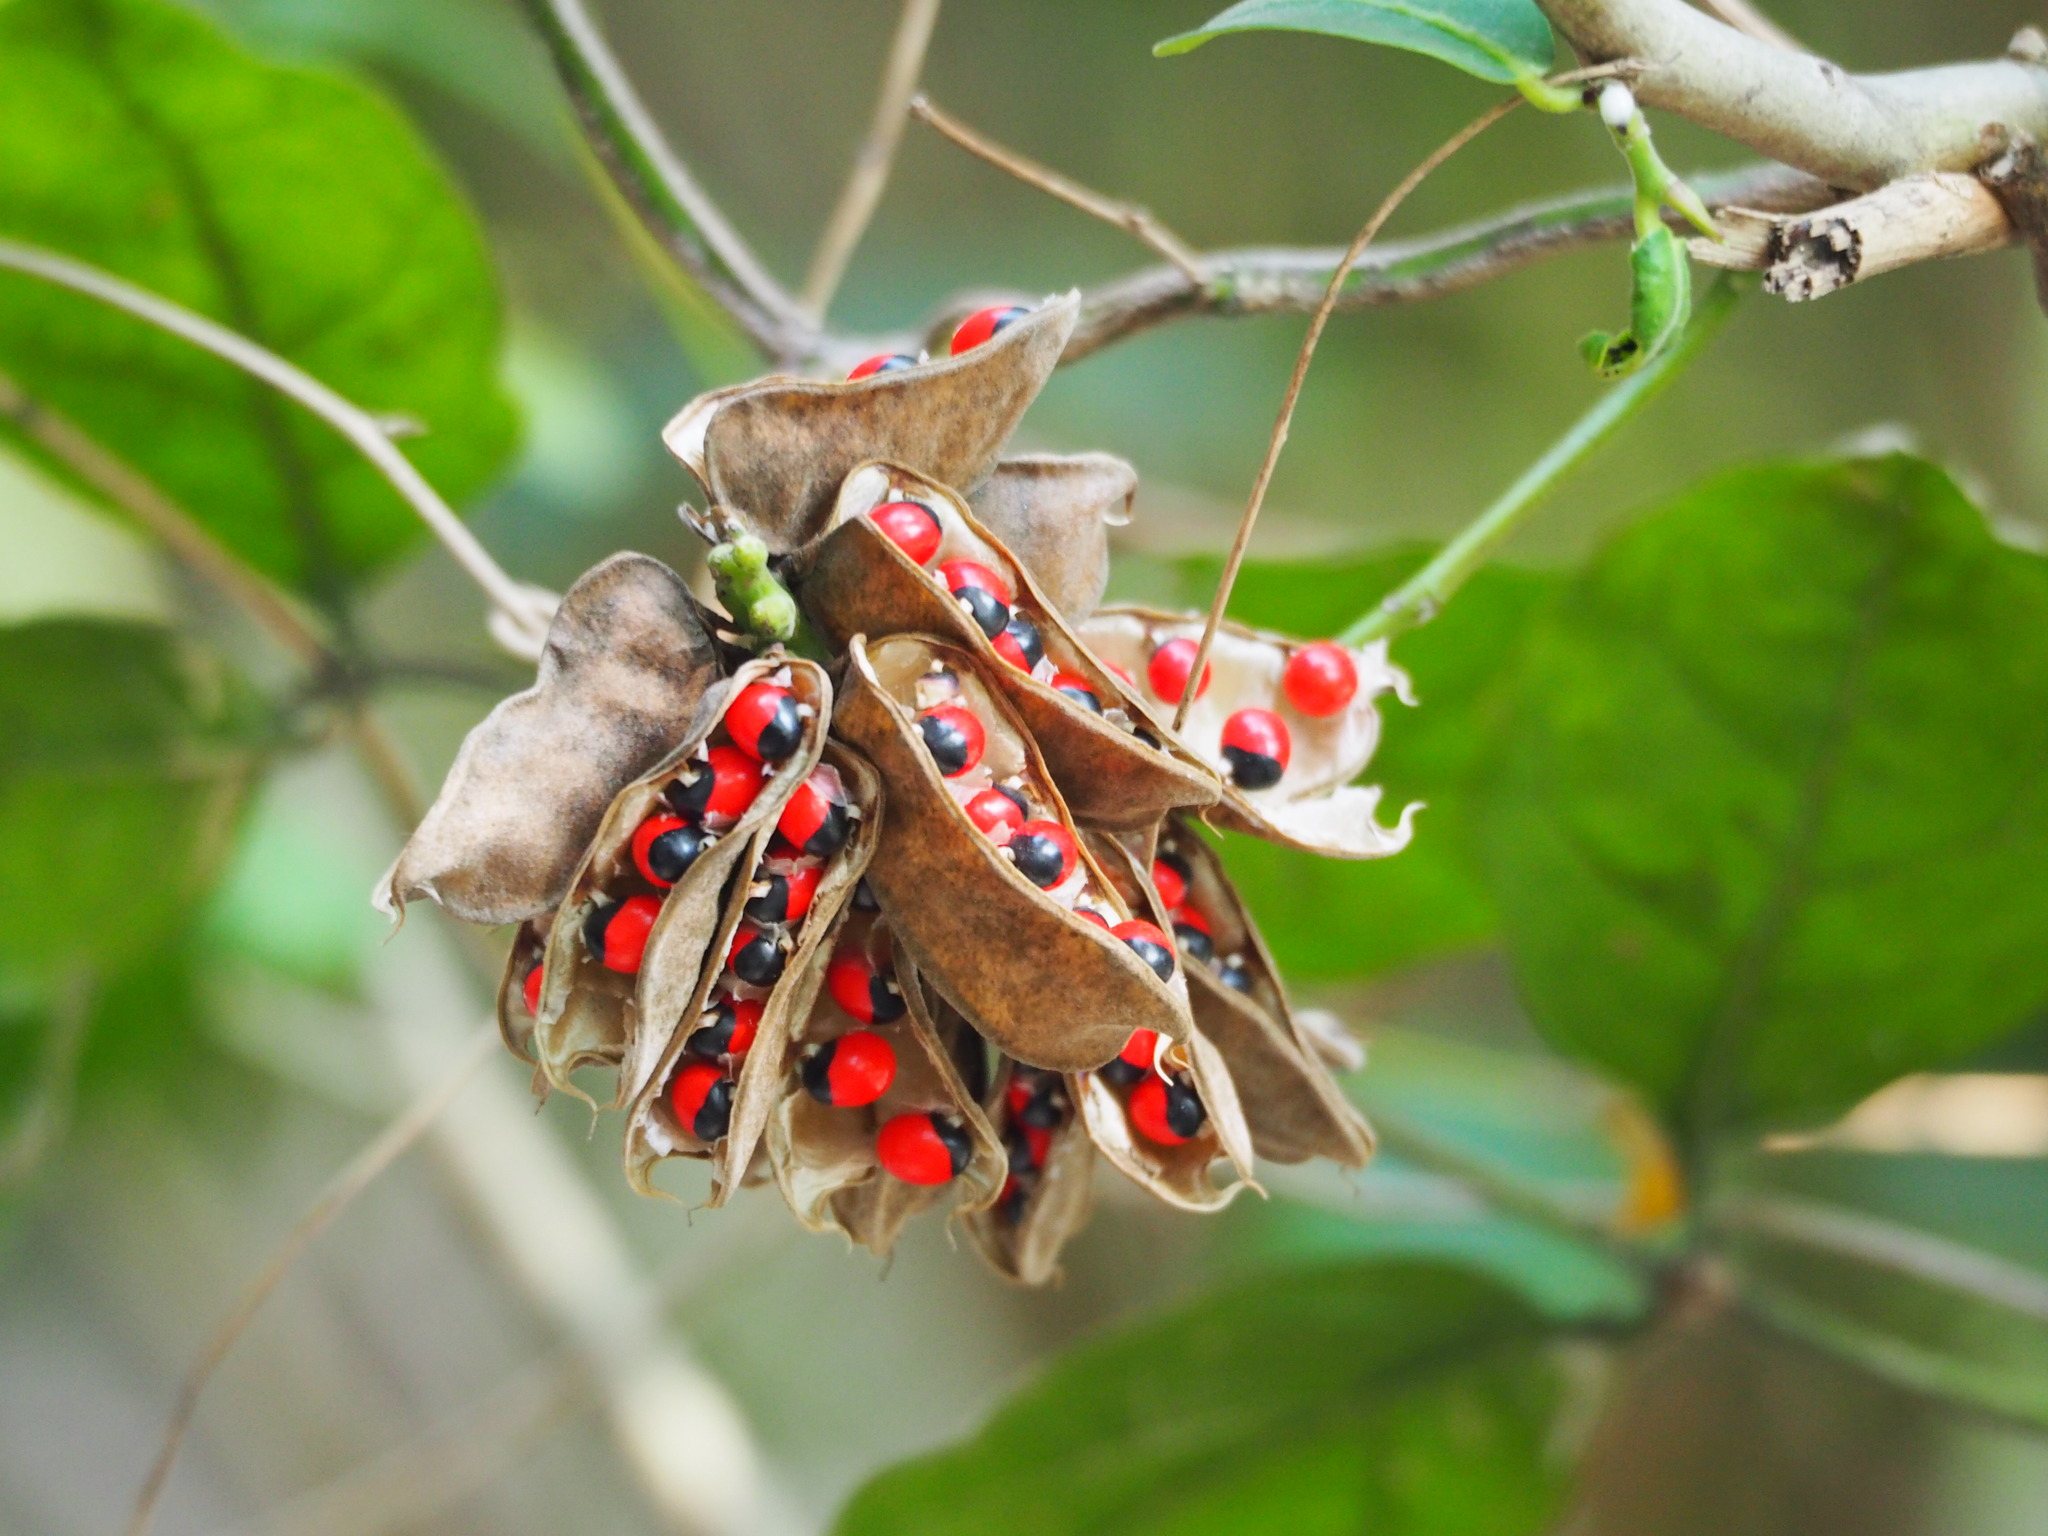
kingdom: Plantae
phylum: Tracheophyta
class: Magnoliopsida
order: Fabales
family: Fabaceae
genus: Abrus
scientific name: Abrus precatorius
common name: Rosarypea
